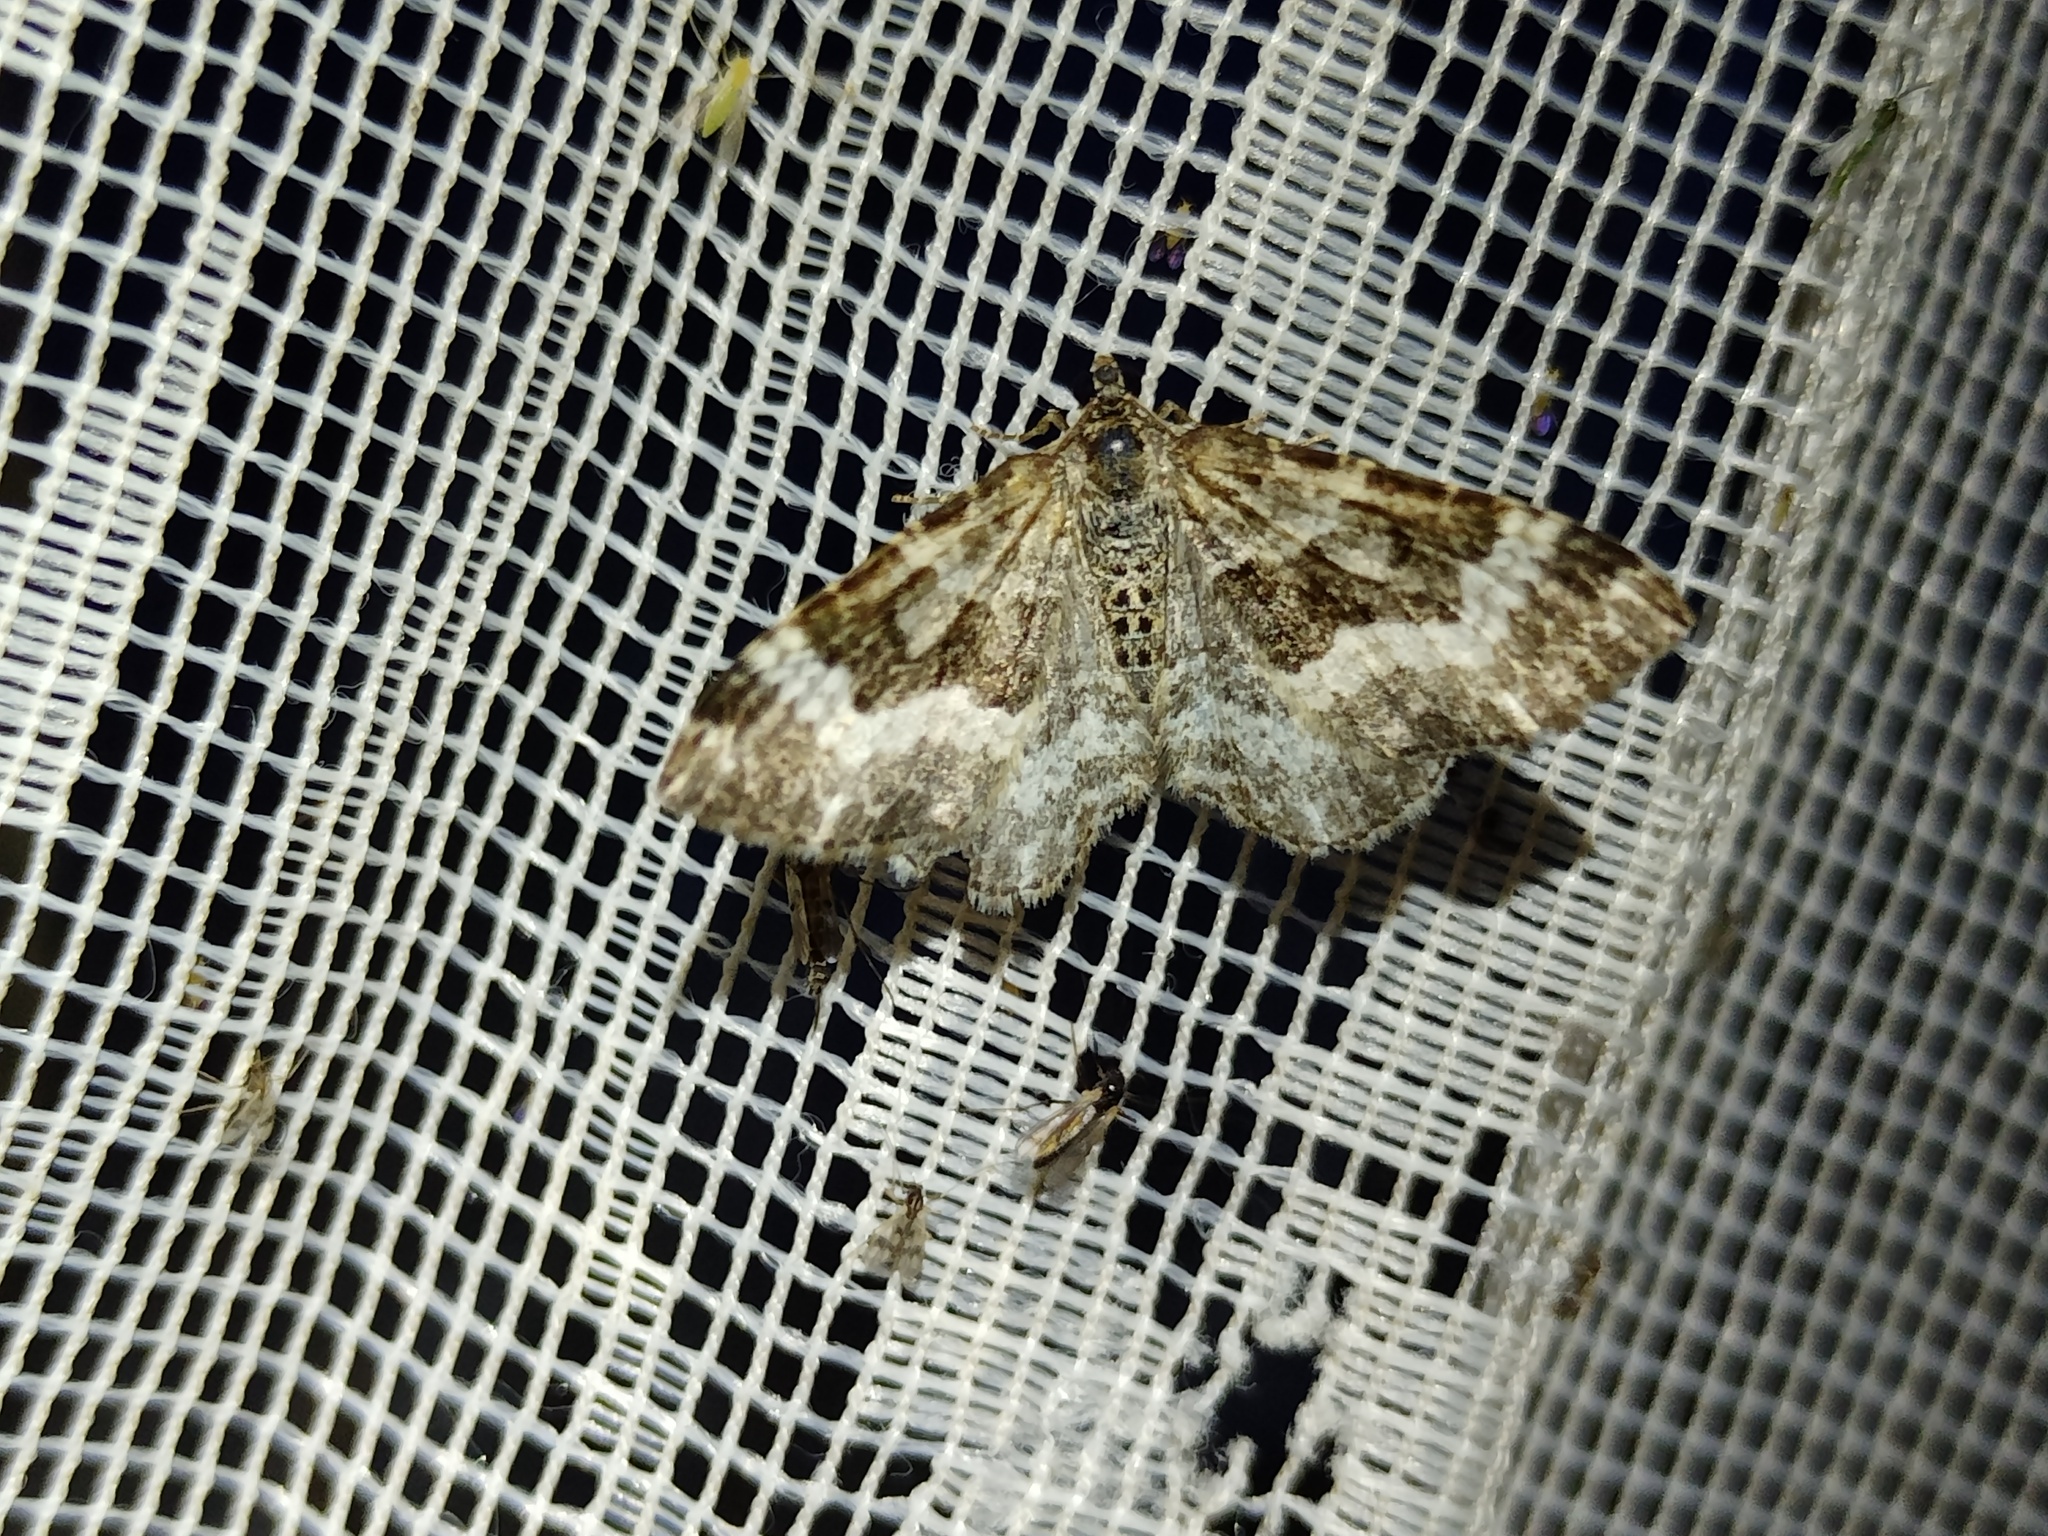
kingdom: Animalia
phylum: Arthropoda
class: Insecta
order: Lepidoptera
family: Geometridae
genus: Epirrhoe
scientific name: Epirrhoe alternata
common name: Common carpet
